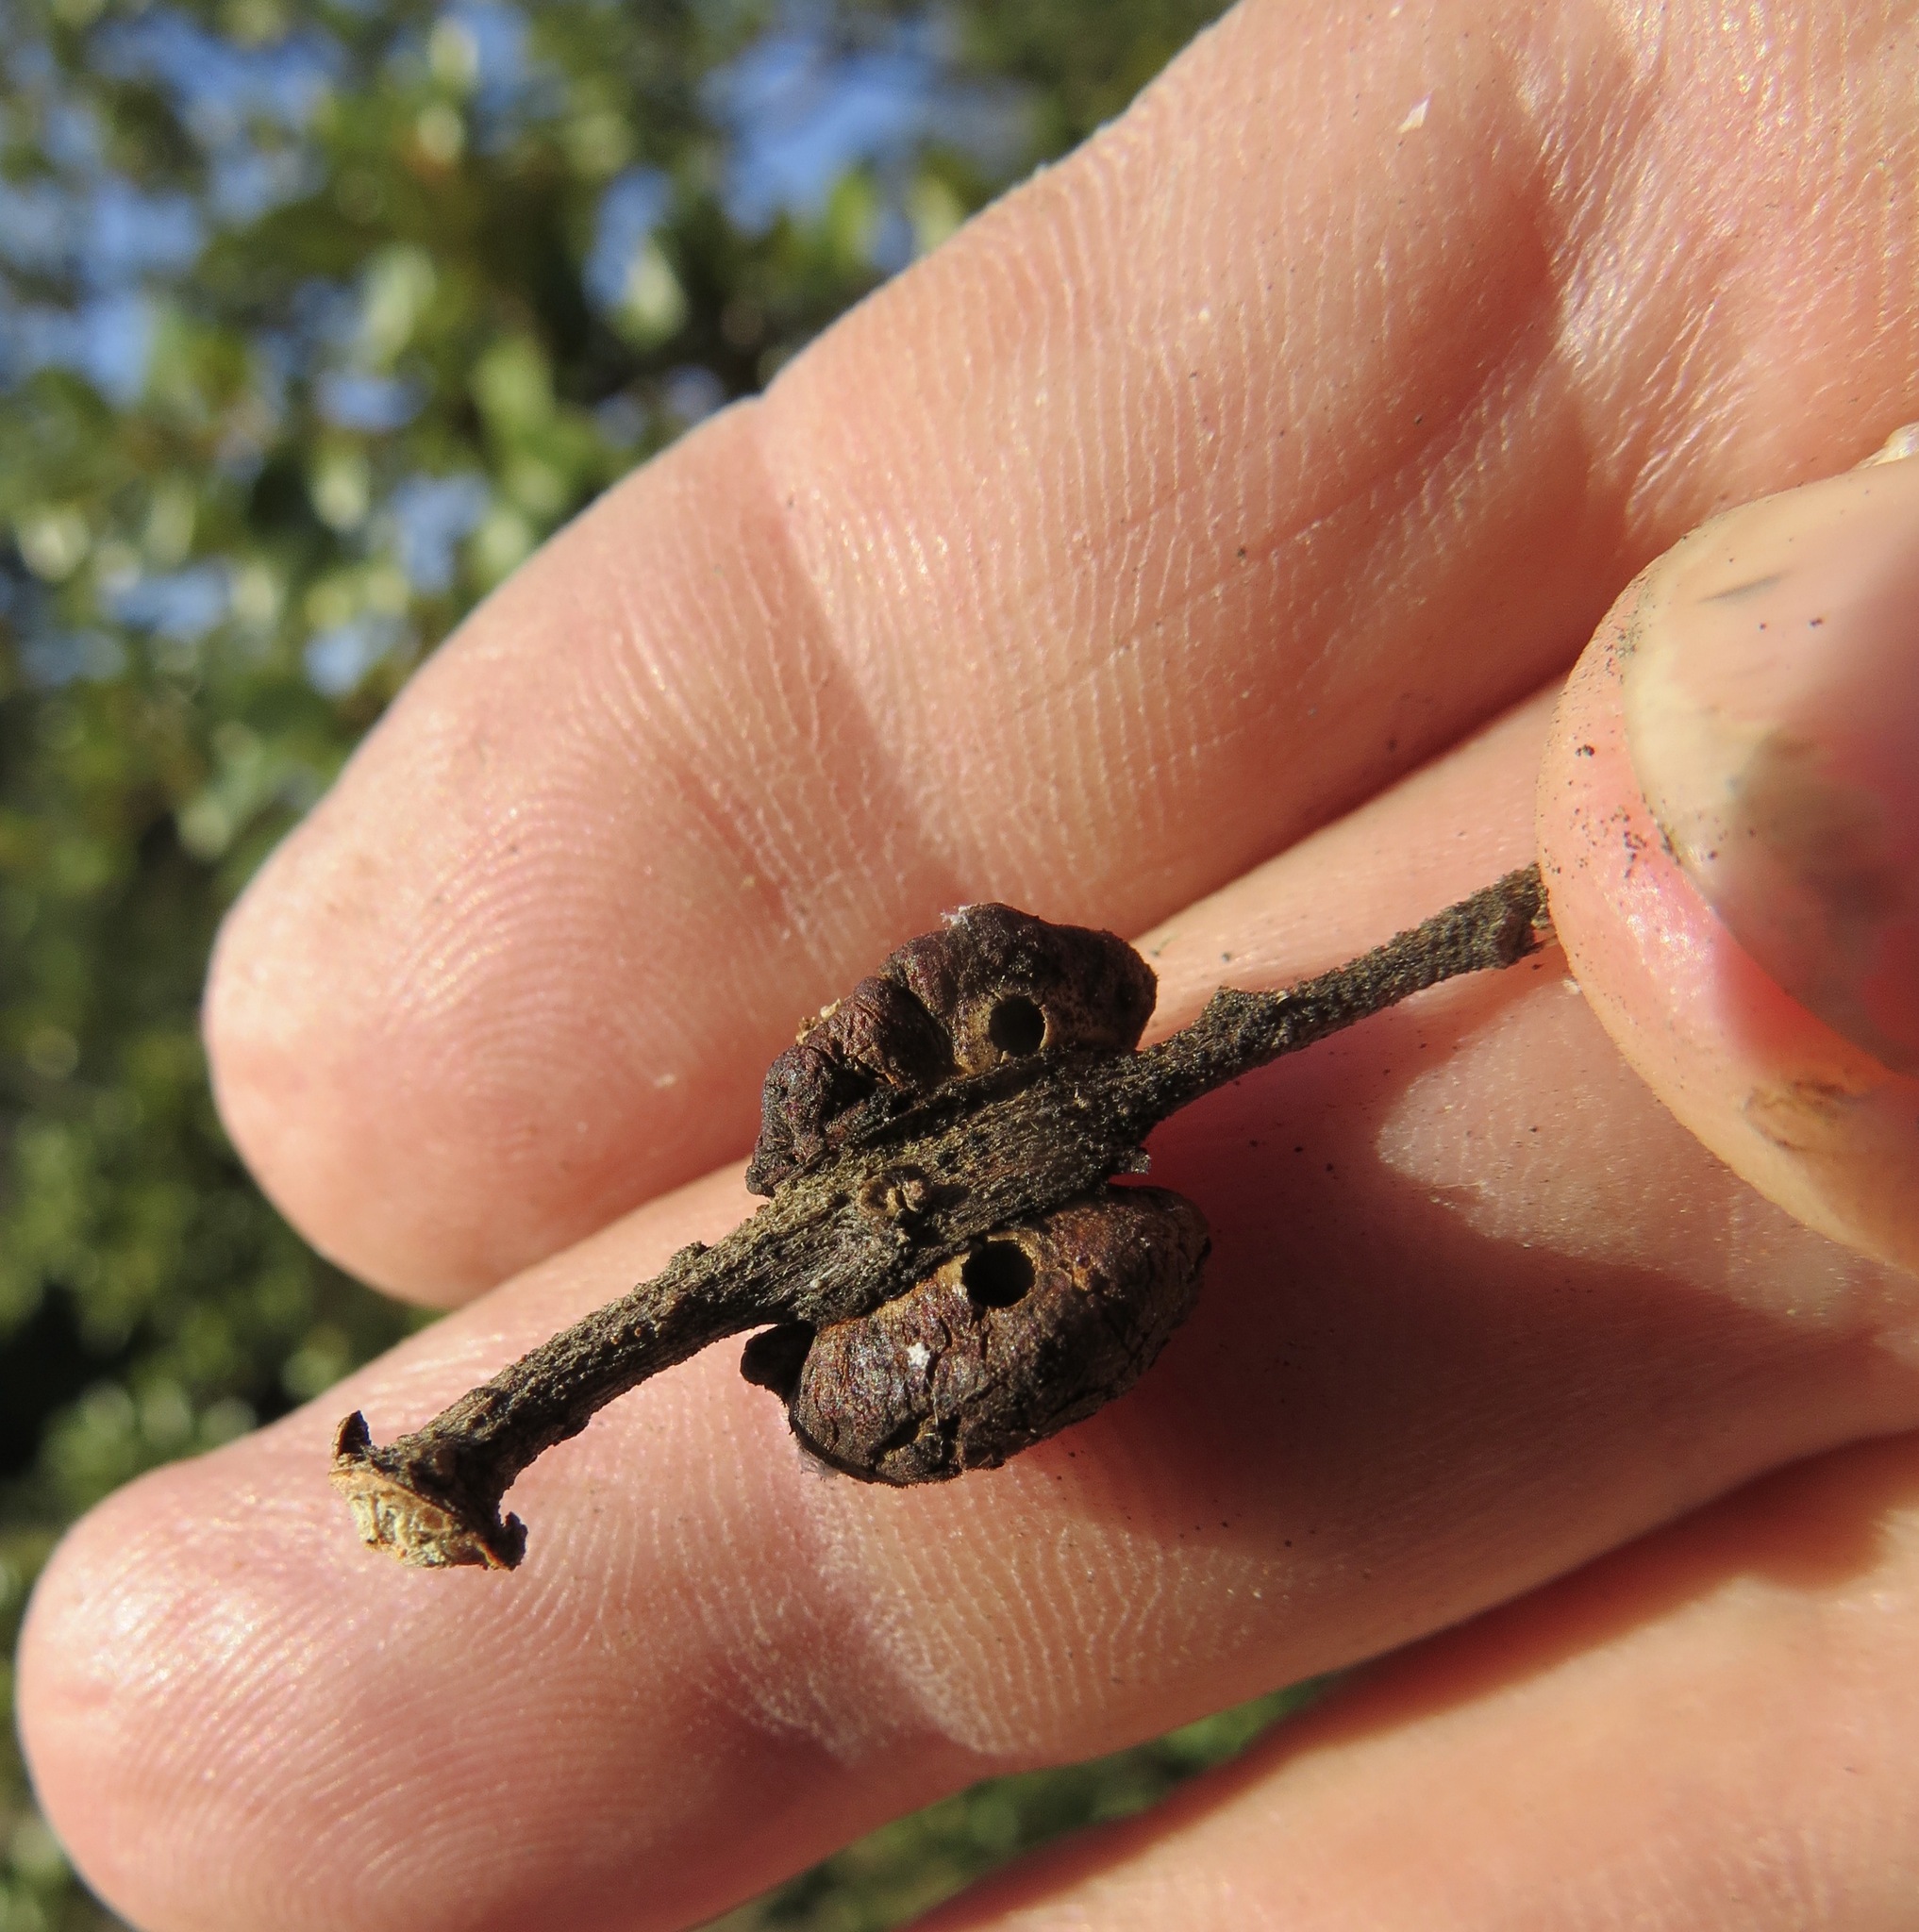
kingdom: Animalia
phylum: Arthropoda
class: Insecta
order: Hymenoptera
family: Cynipidae
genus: Disholandricus
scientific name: Disholandricus
